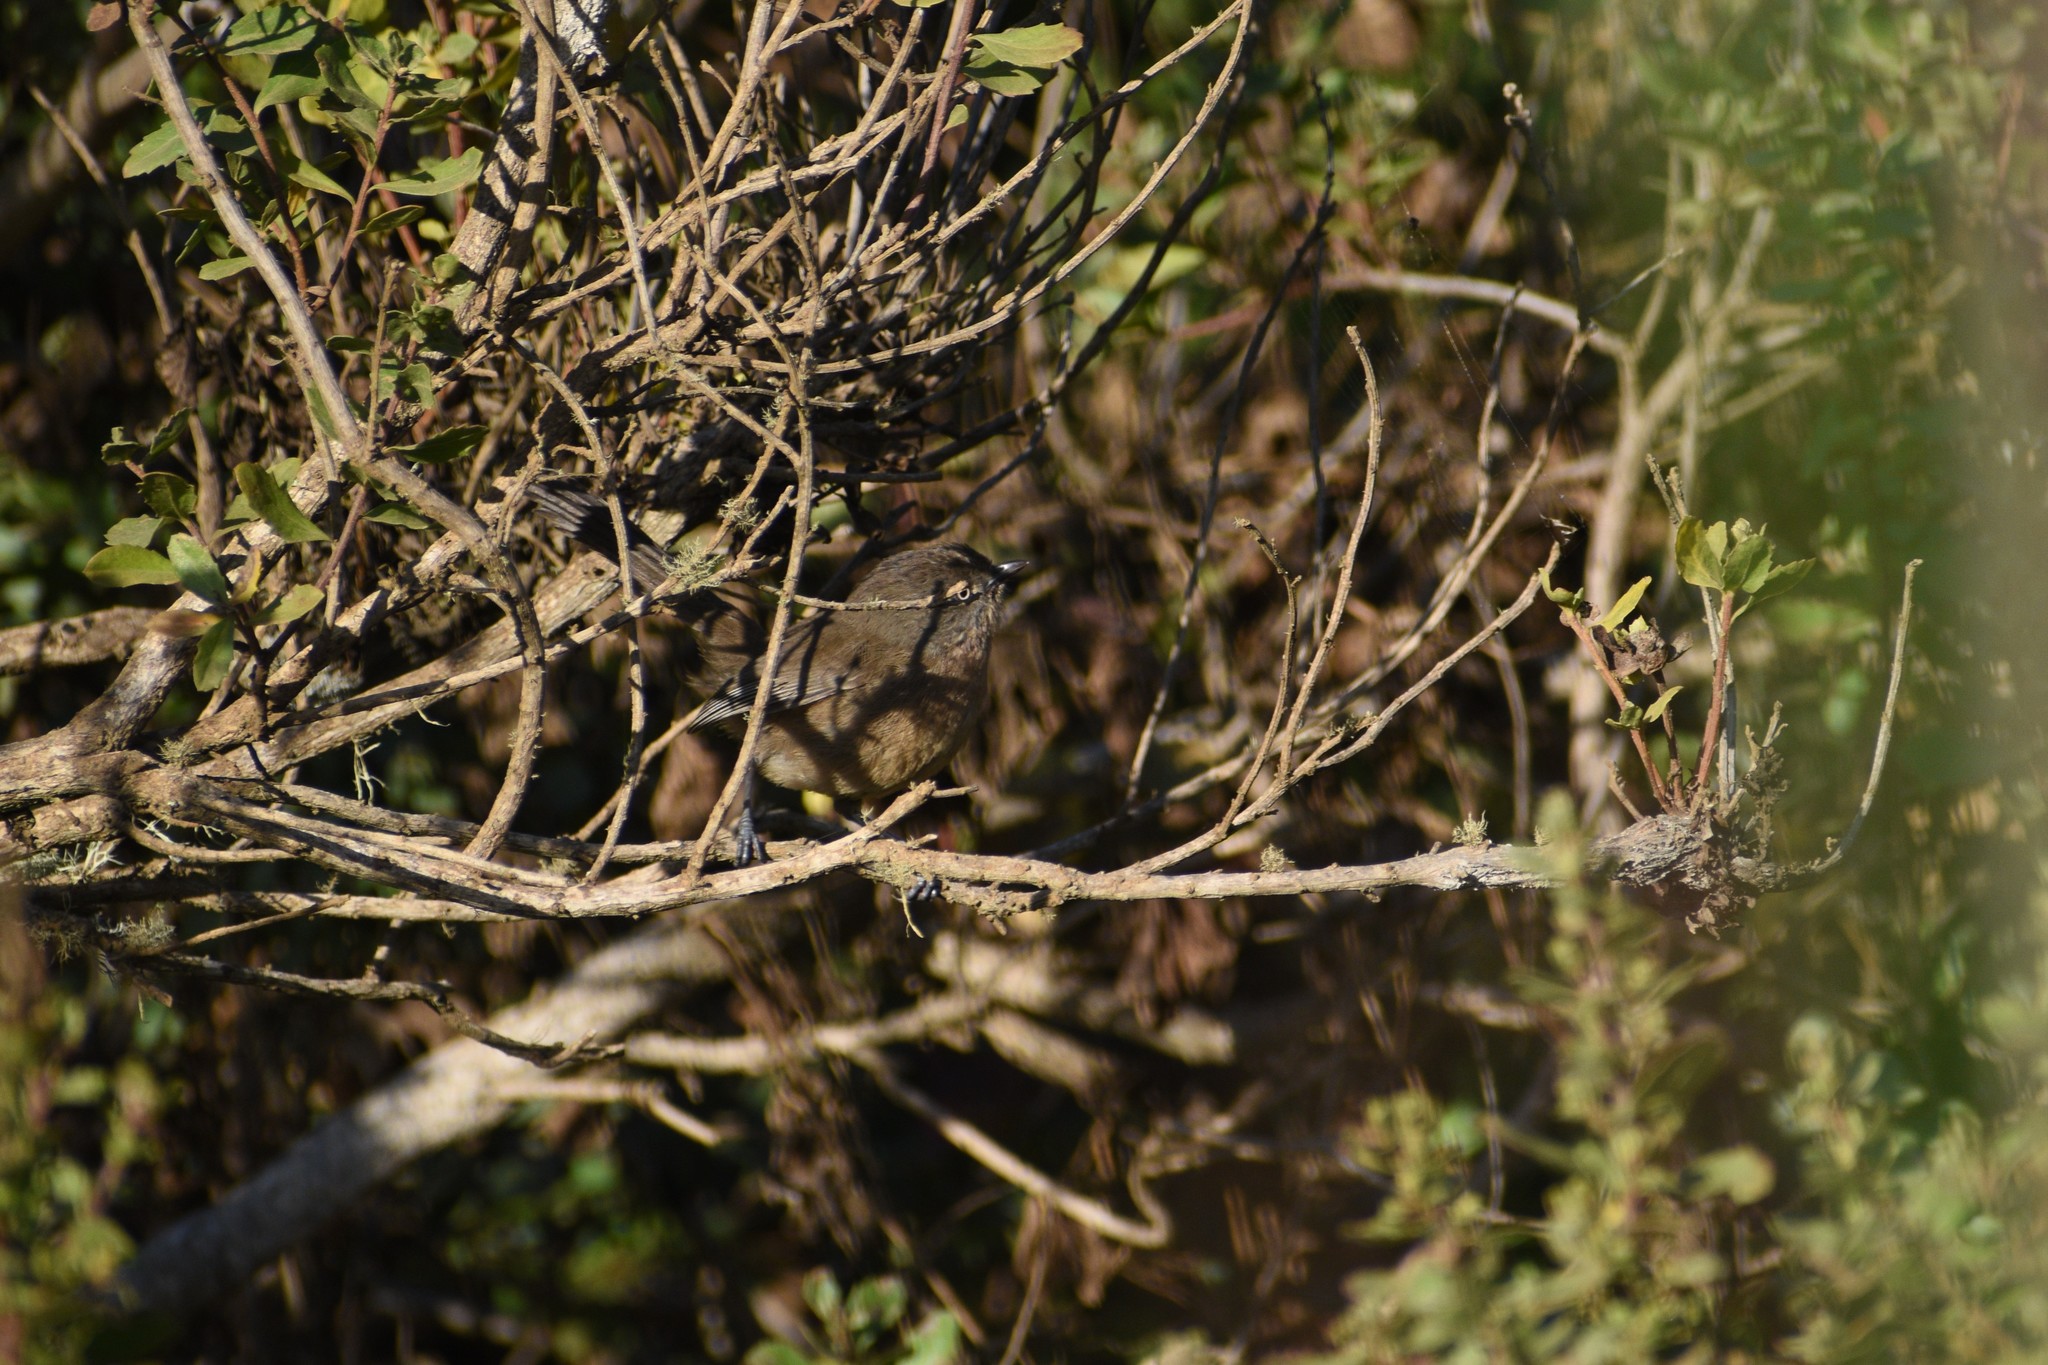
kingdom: Animalia
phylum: Chordata
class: Aves
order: Passeriformes
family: Sylviidae
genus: Chamaea
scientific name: Chamaea fasciata
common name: Wrentit
